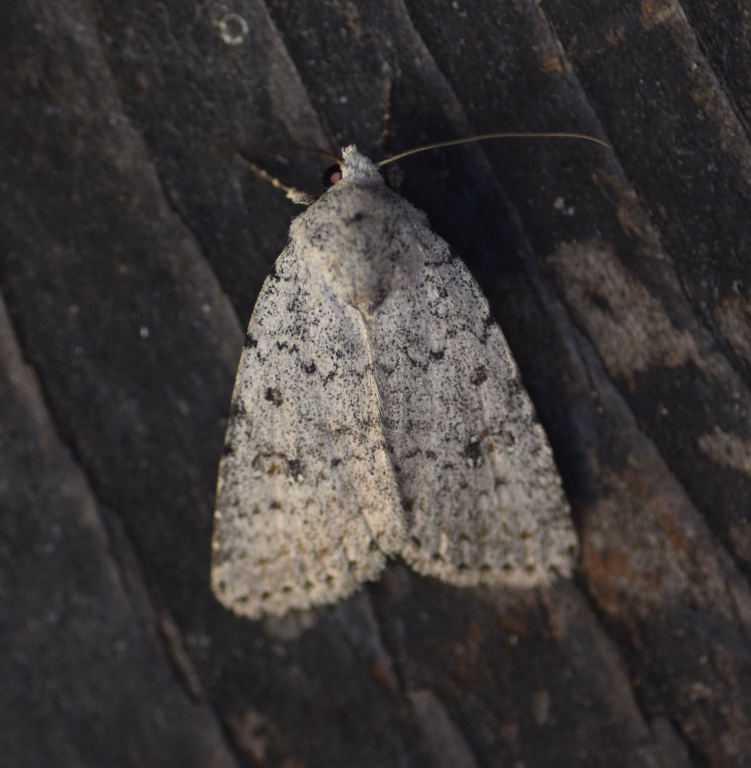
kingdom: Animalia
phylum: Arthropoda
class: Insecta
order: Lepidoptera
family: Noctuidae
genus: Caradrina
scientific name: Caradrina multifera
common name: Speckled rustic
